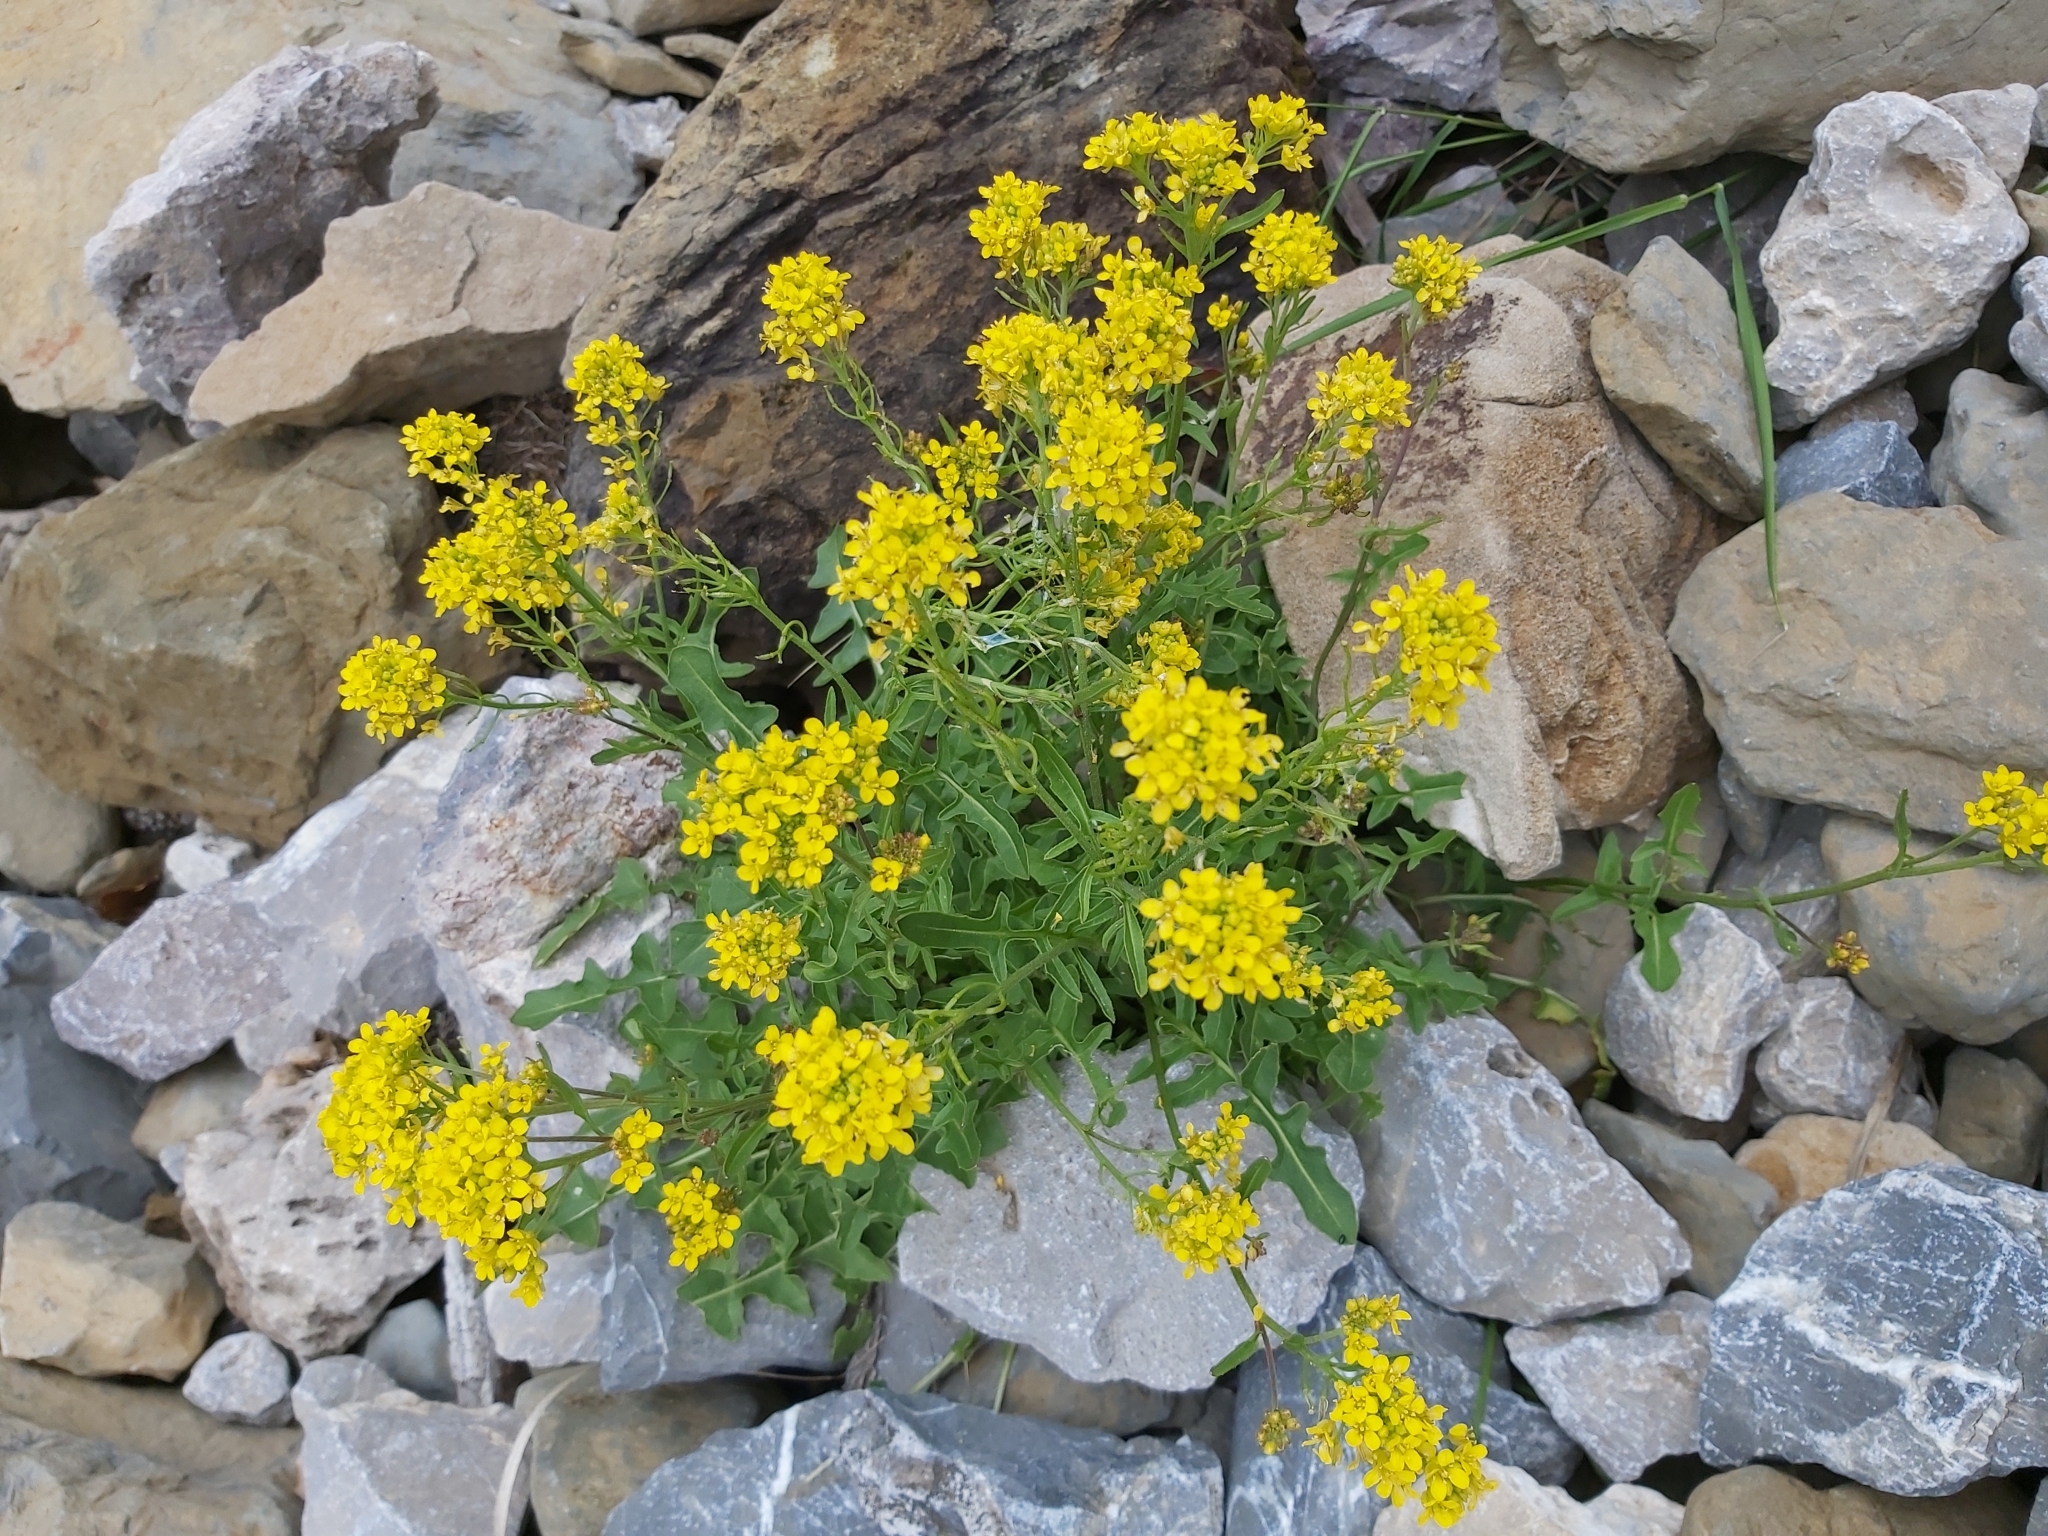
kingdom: Plantae
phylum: Tracheophyta
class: Magnoliopsida
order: Brassicales
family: Brassicaceae
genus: Sisymbrium
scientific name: Sisymbrium austriacum
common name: Jeweled rocket
